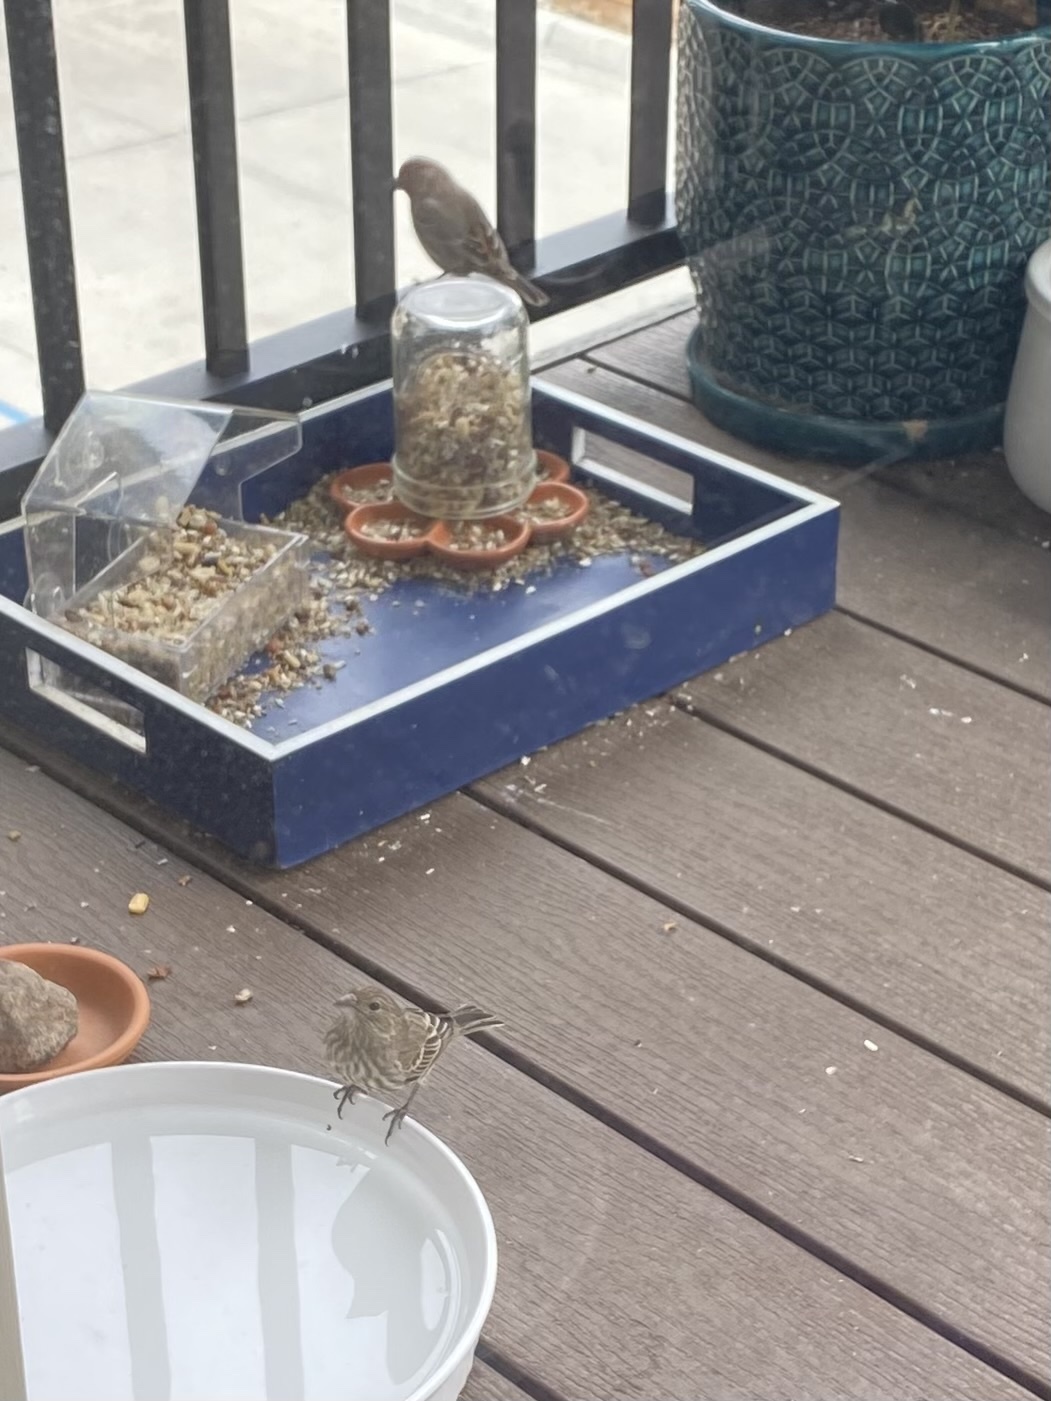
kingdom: Animalia
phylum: Chordata
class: Aves
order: Passeriformes
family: Fringillidae
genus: Haemorhous
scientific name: Haemorhous mexicanus
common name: House finch
